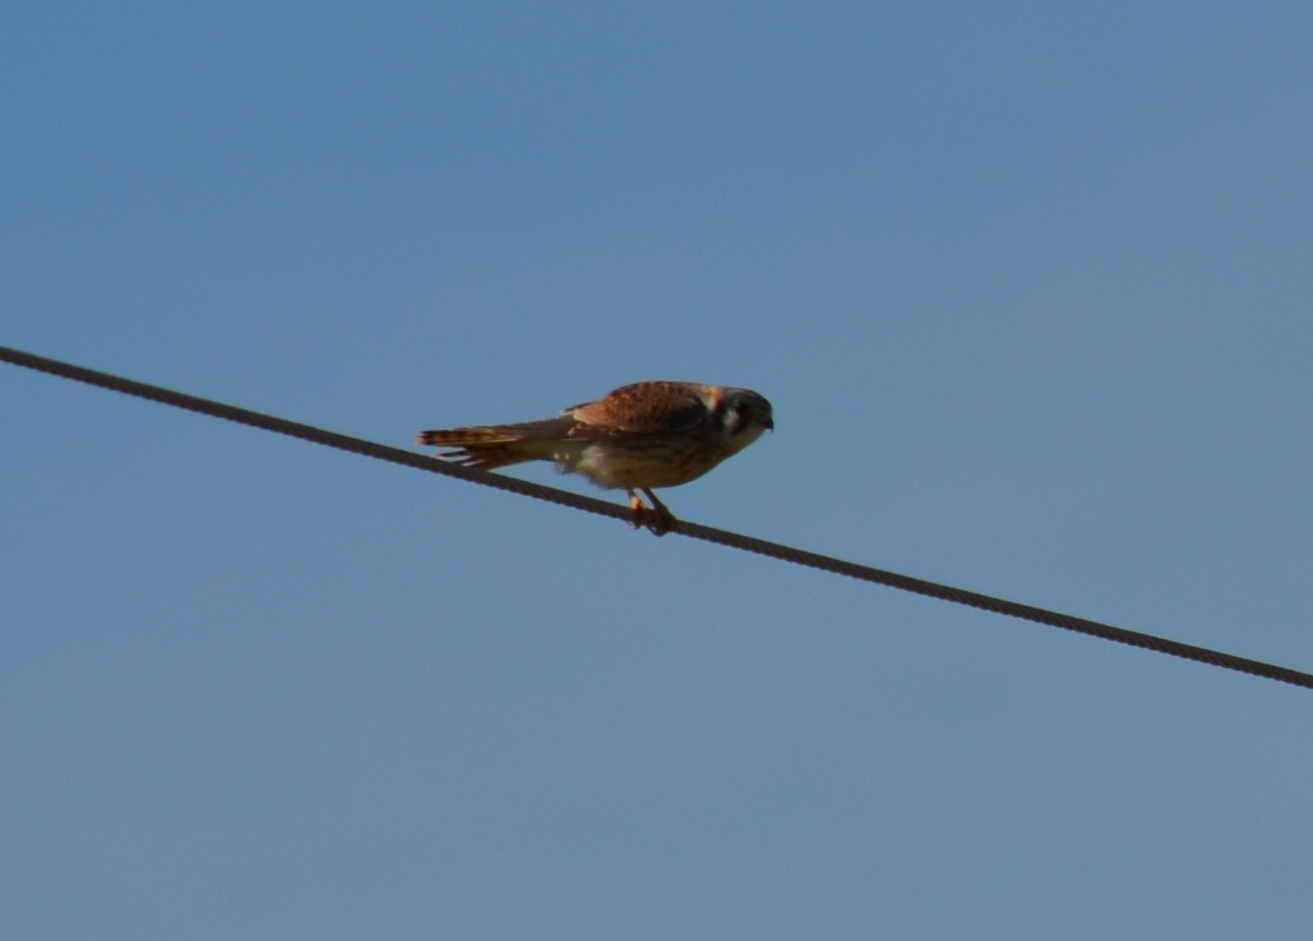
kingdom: Animalia
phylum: Chordata
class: Aves
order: Falconiformes
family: Falconidae
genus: Falco
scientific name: Falco sparverius
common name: American kestrel
